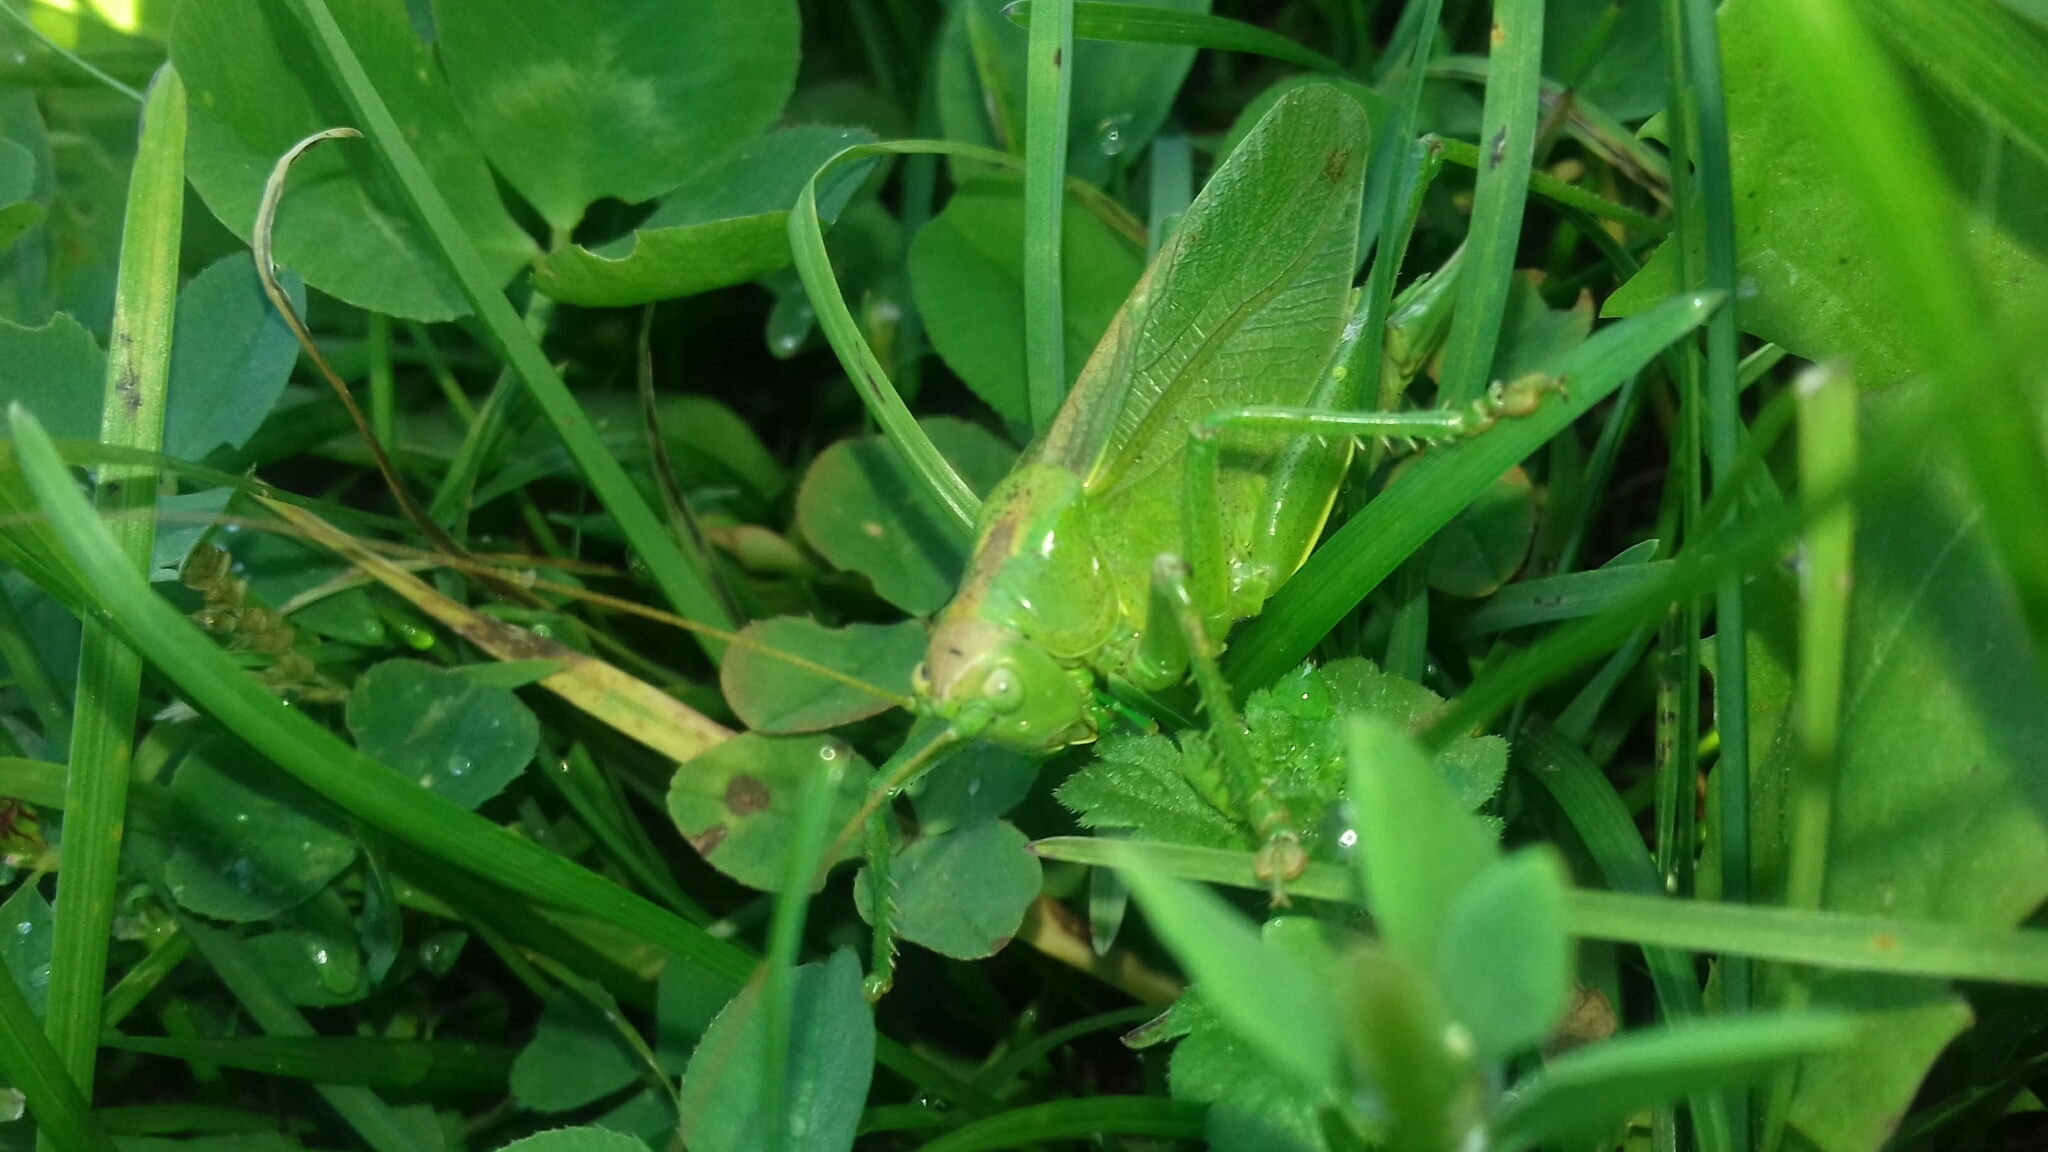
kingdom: Animalia
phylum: Arthropoda
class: Insecta
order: Orthoptera
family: Tettigoniidae
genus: Tettigonia
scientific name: Tettigonia cantans
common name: Upland green bush-cricket
